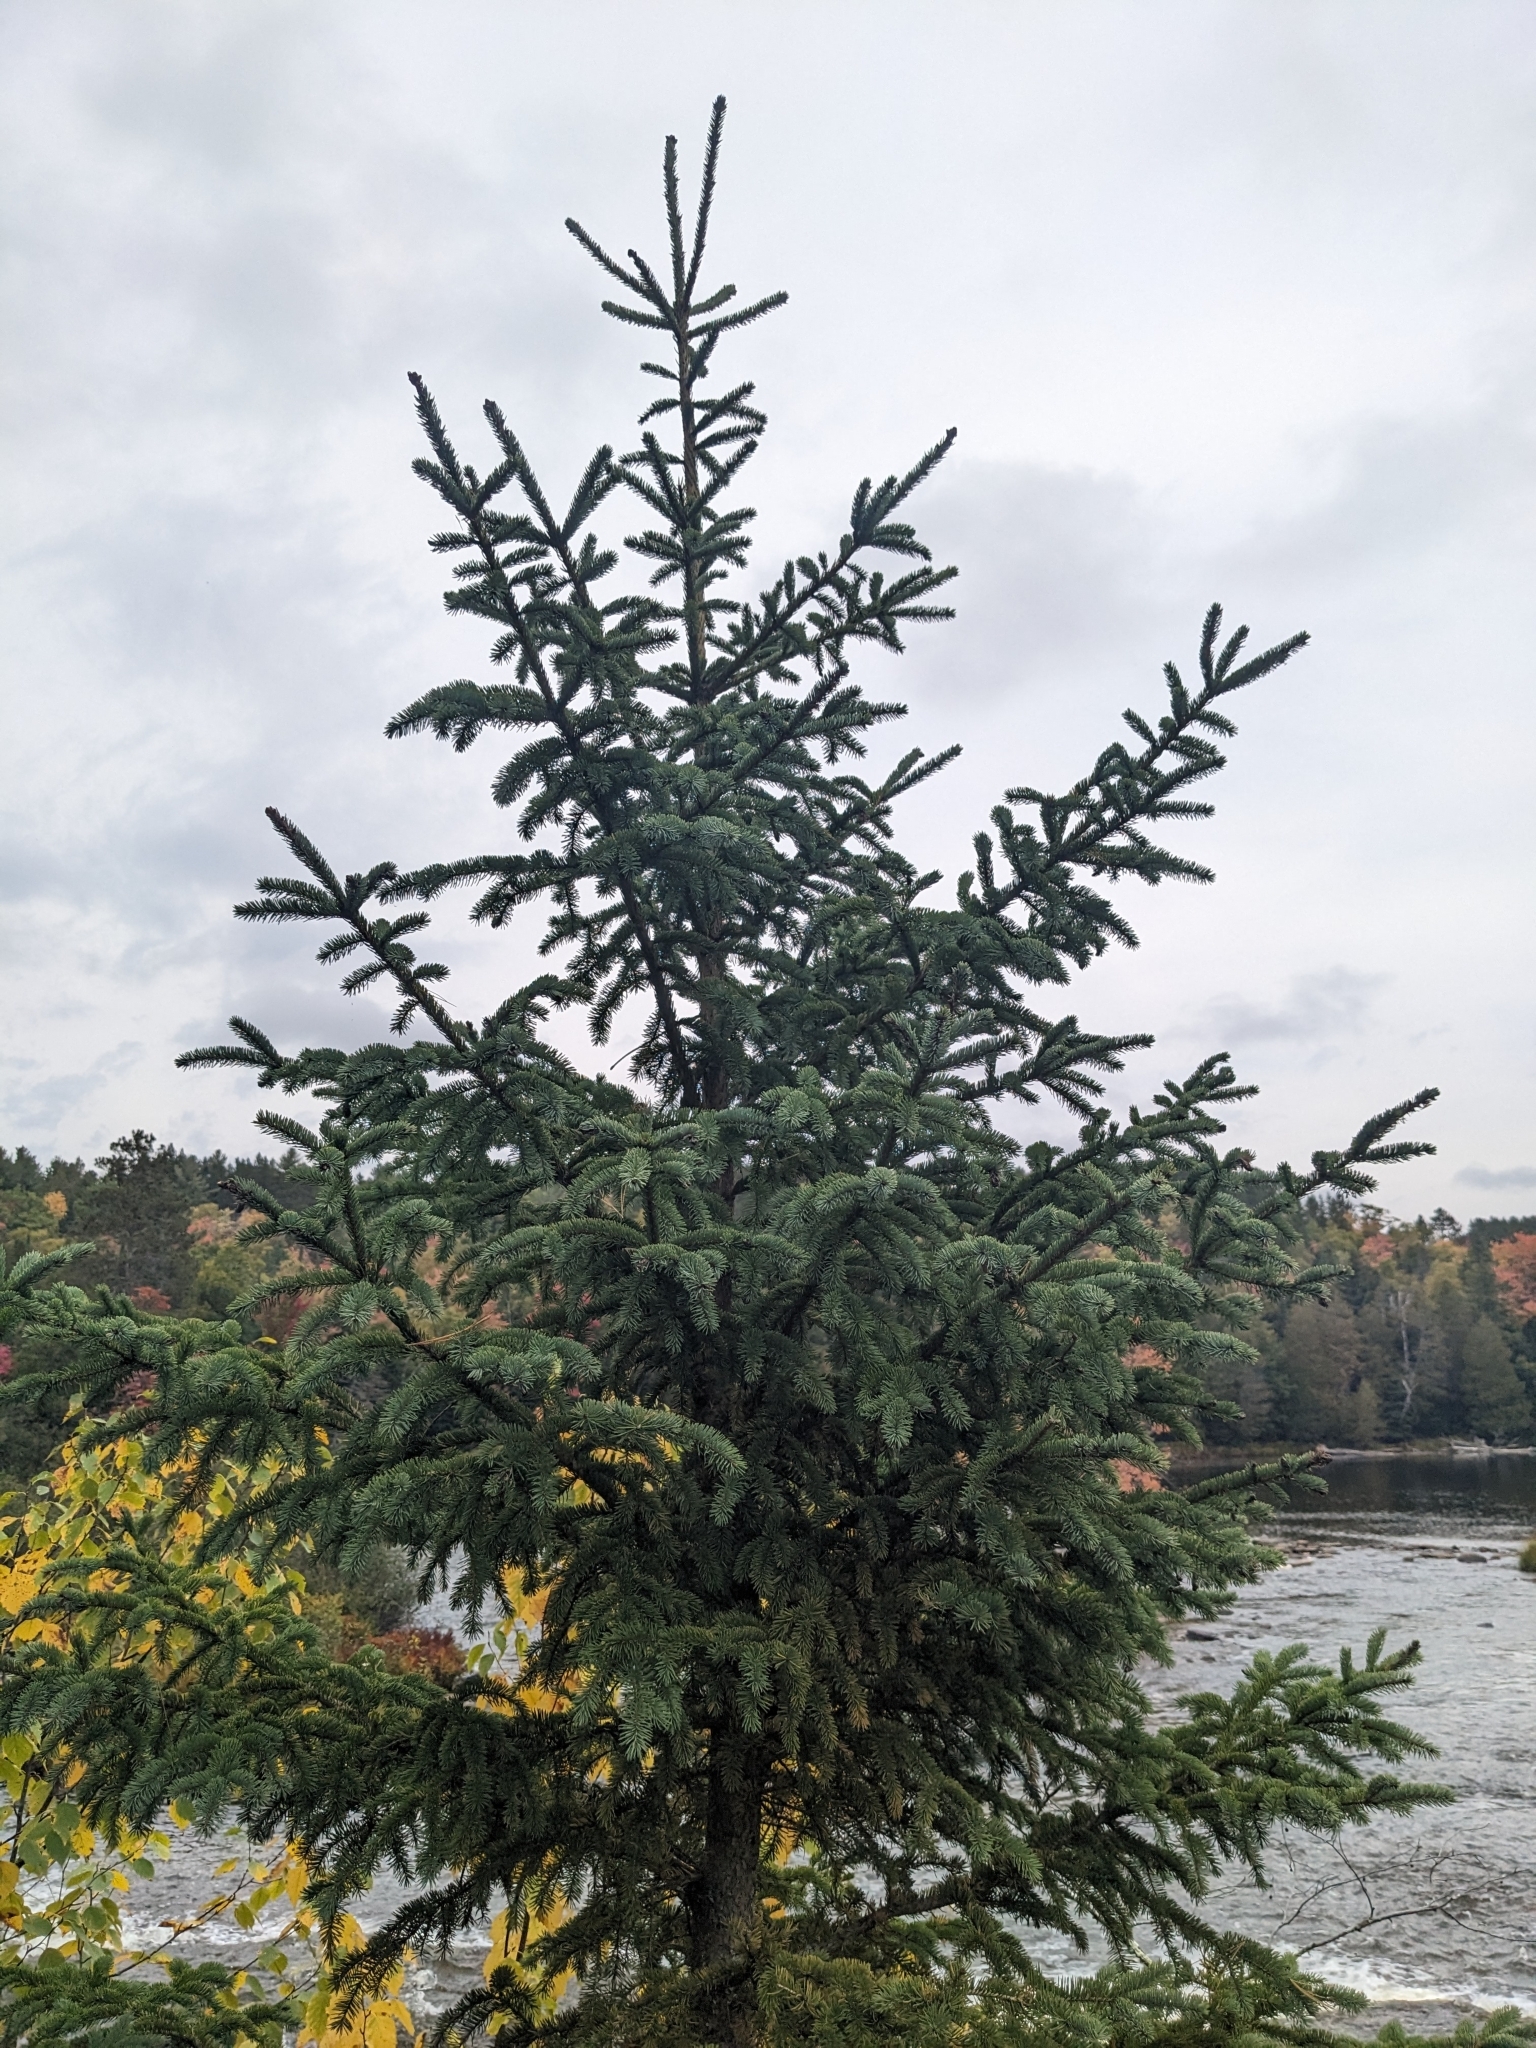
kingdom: Plantae
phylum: Tracheophyta
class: Pinopsida
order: Pinales
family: Pinaceae
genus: Picea
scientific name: Picea glauca
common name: White spruce
